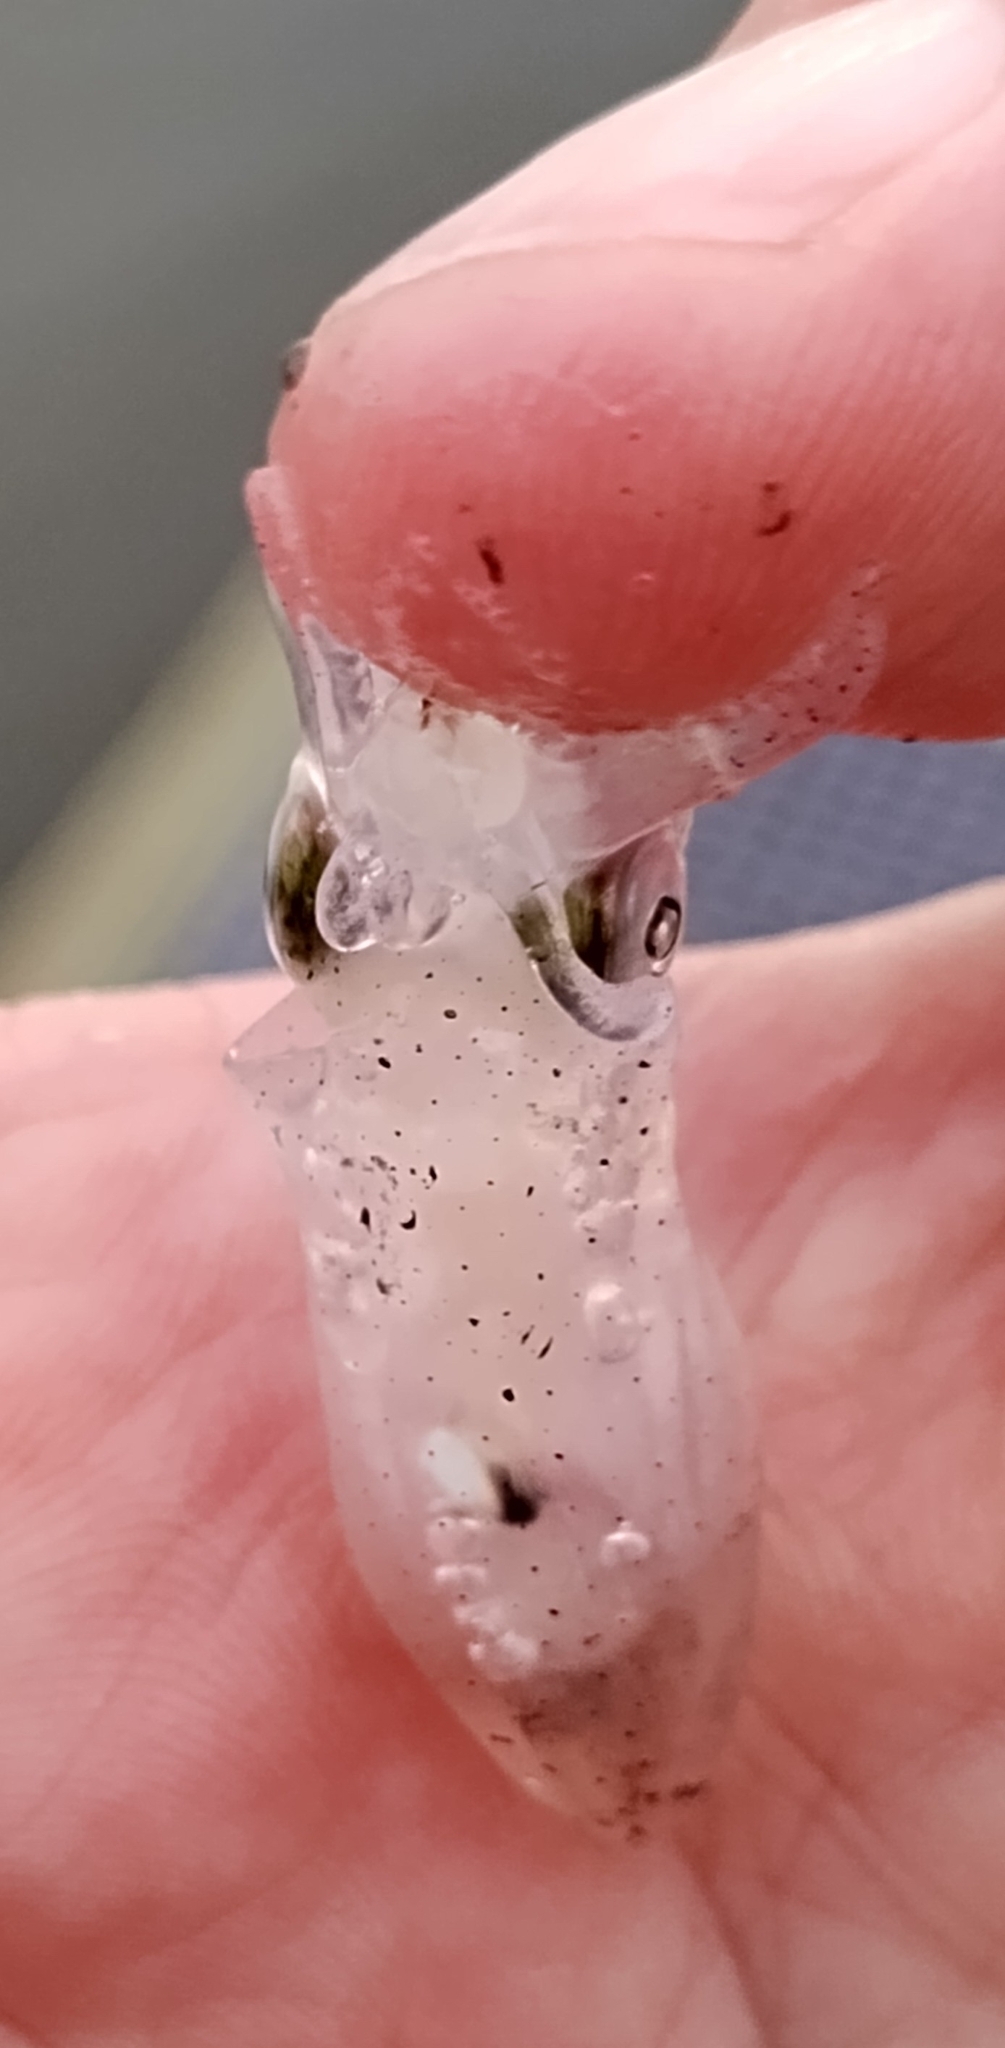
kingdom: Animalia
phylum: Mollusca
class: Cephalopoda
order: Myopsida
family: Loliginidae
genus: Lolliguncula
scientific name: Lolliguncula brevis
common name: Brief squid
